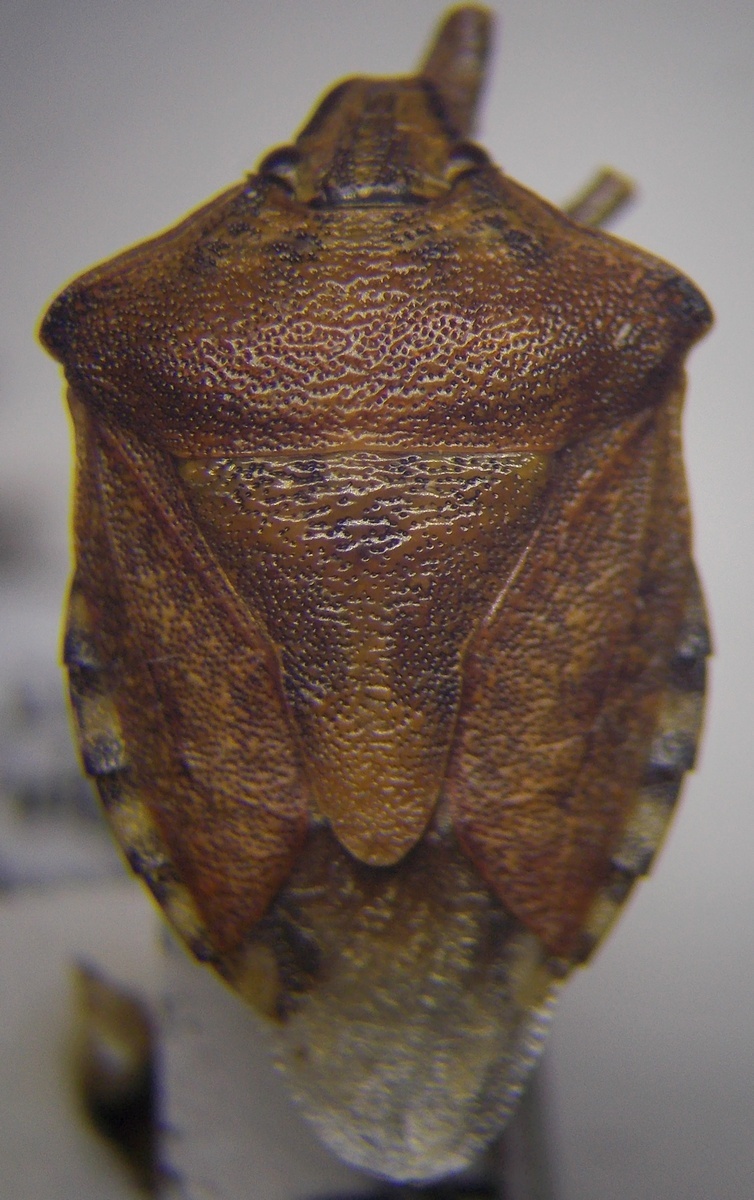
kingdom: Animalia
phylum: Arthropoda
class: Insecta
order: Hemiptera
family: Pentatomidae
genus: Carpocoris
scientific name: Carpocoris purpureipennis
